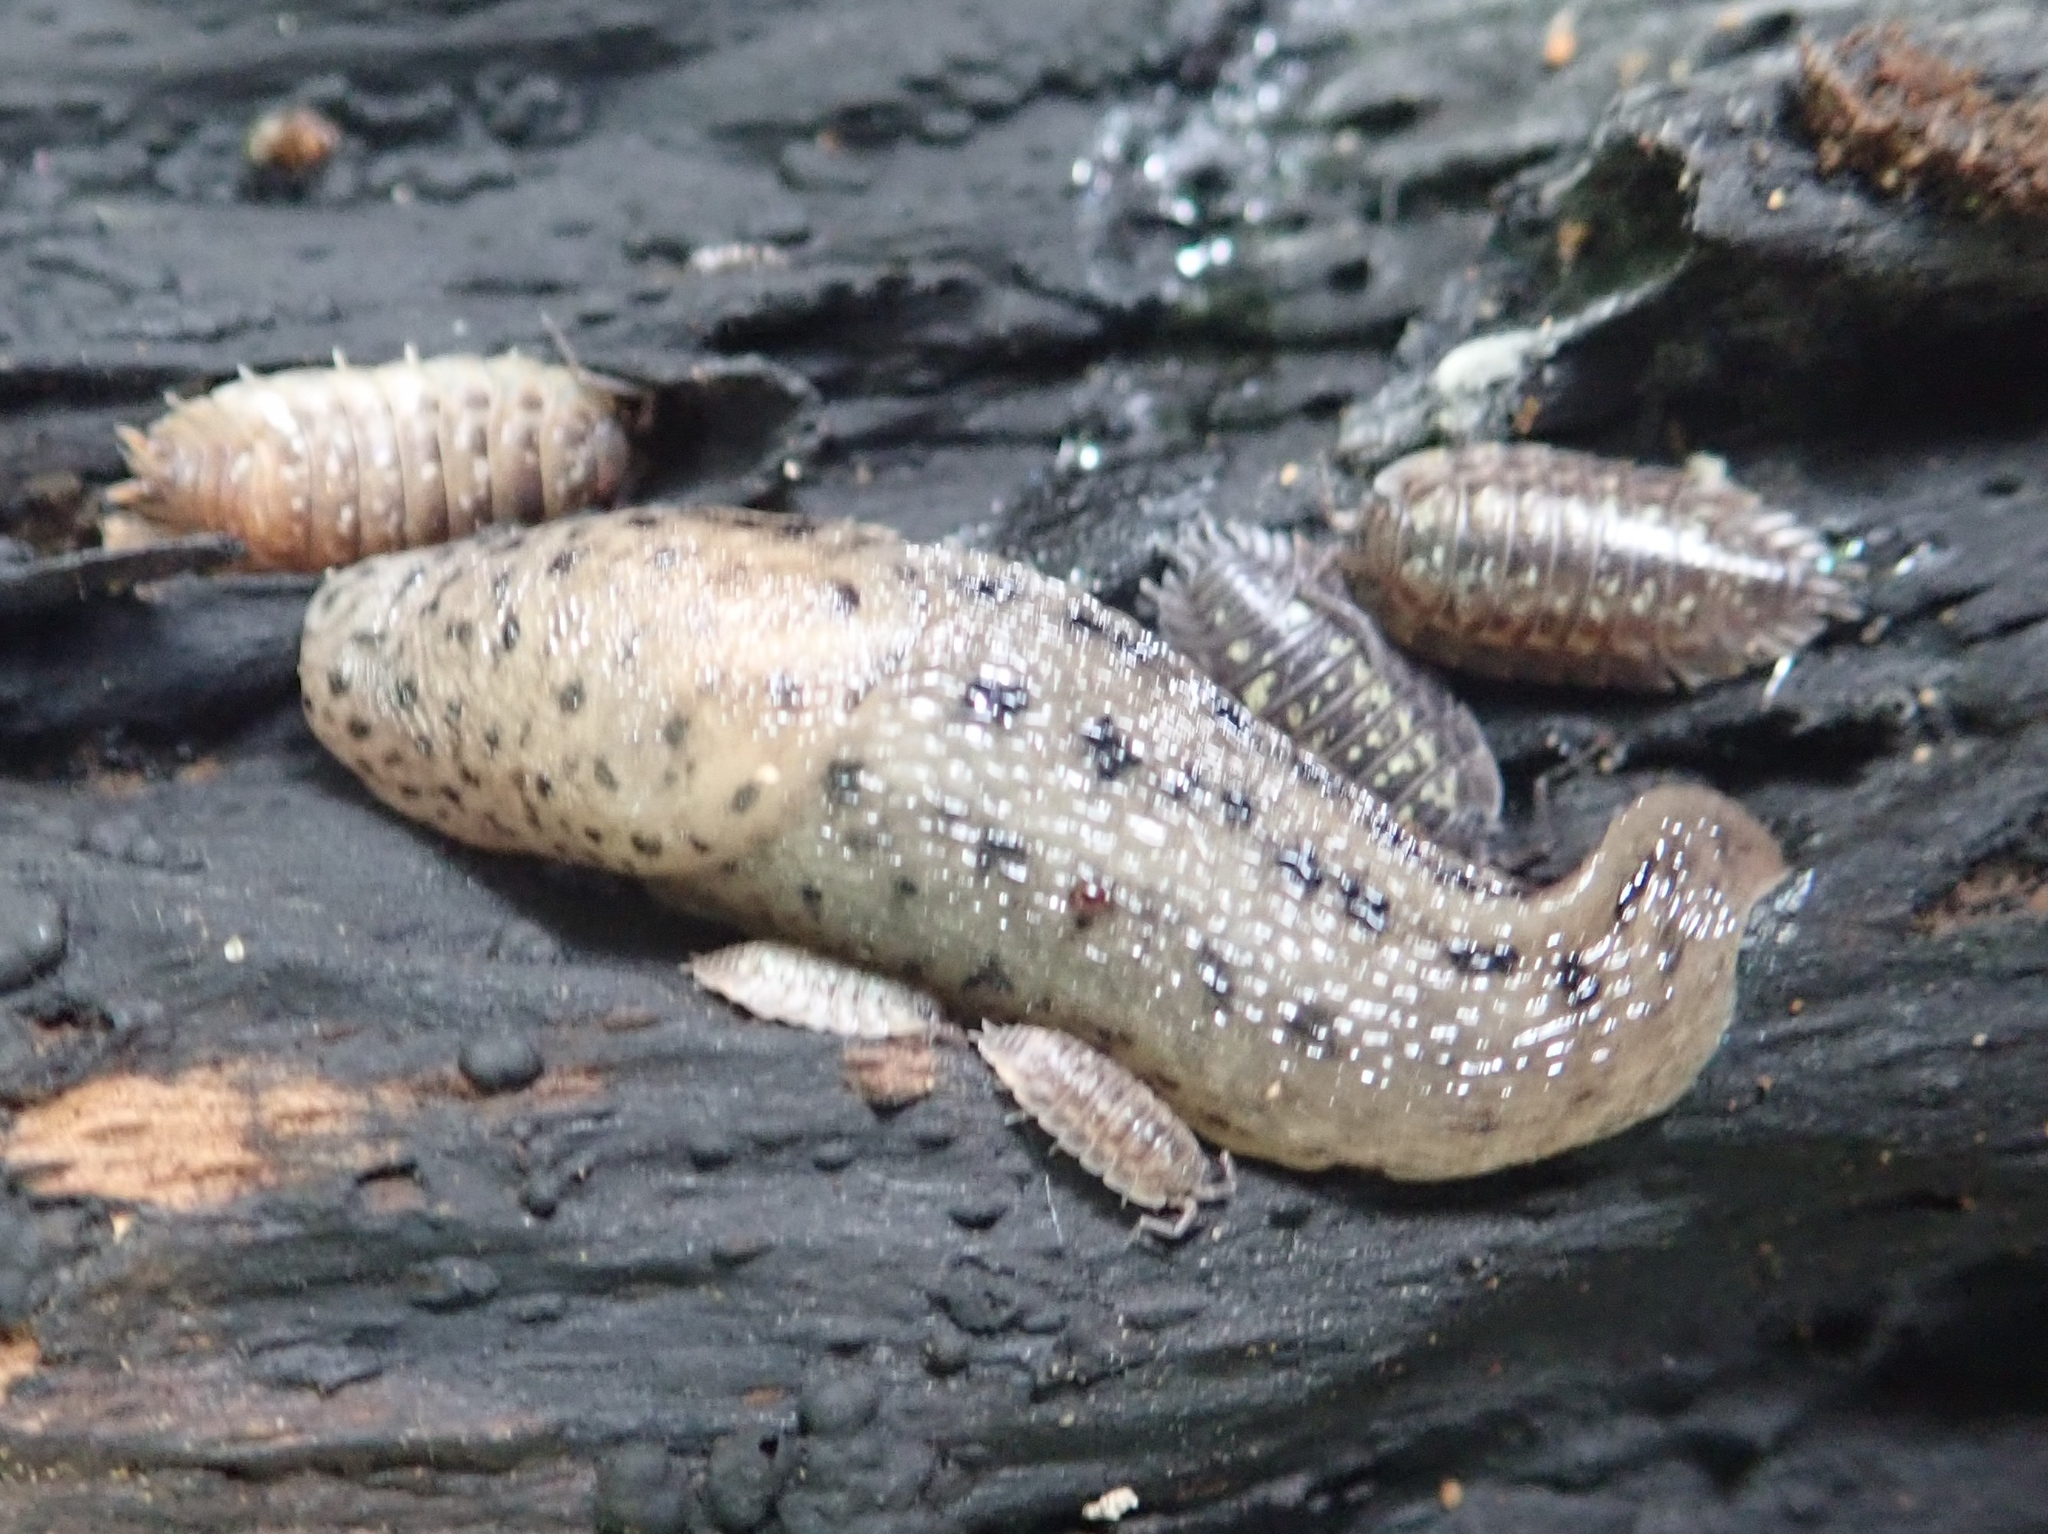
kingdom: Animalia
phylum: Mollusca
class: Gastropoda
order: Stylommatophora
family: Limacidae
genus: Limax
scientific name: Limax maximus
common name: Great grey slug
